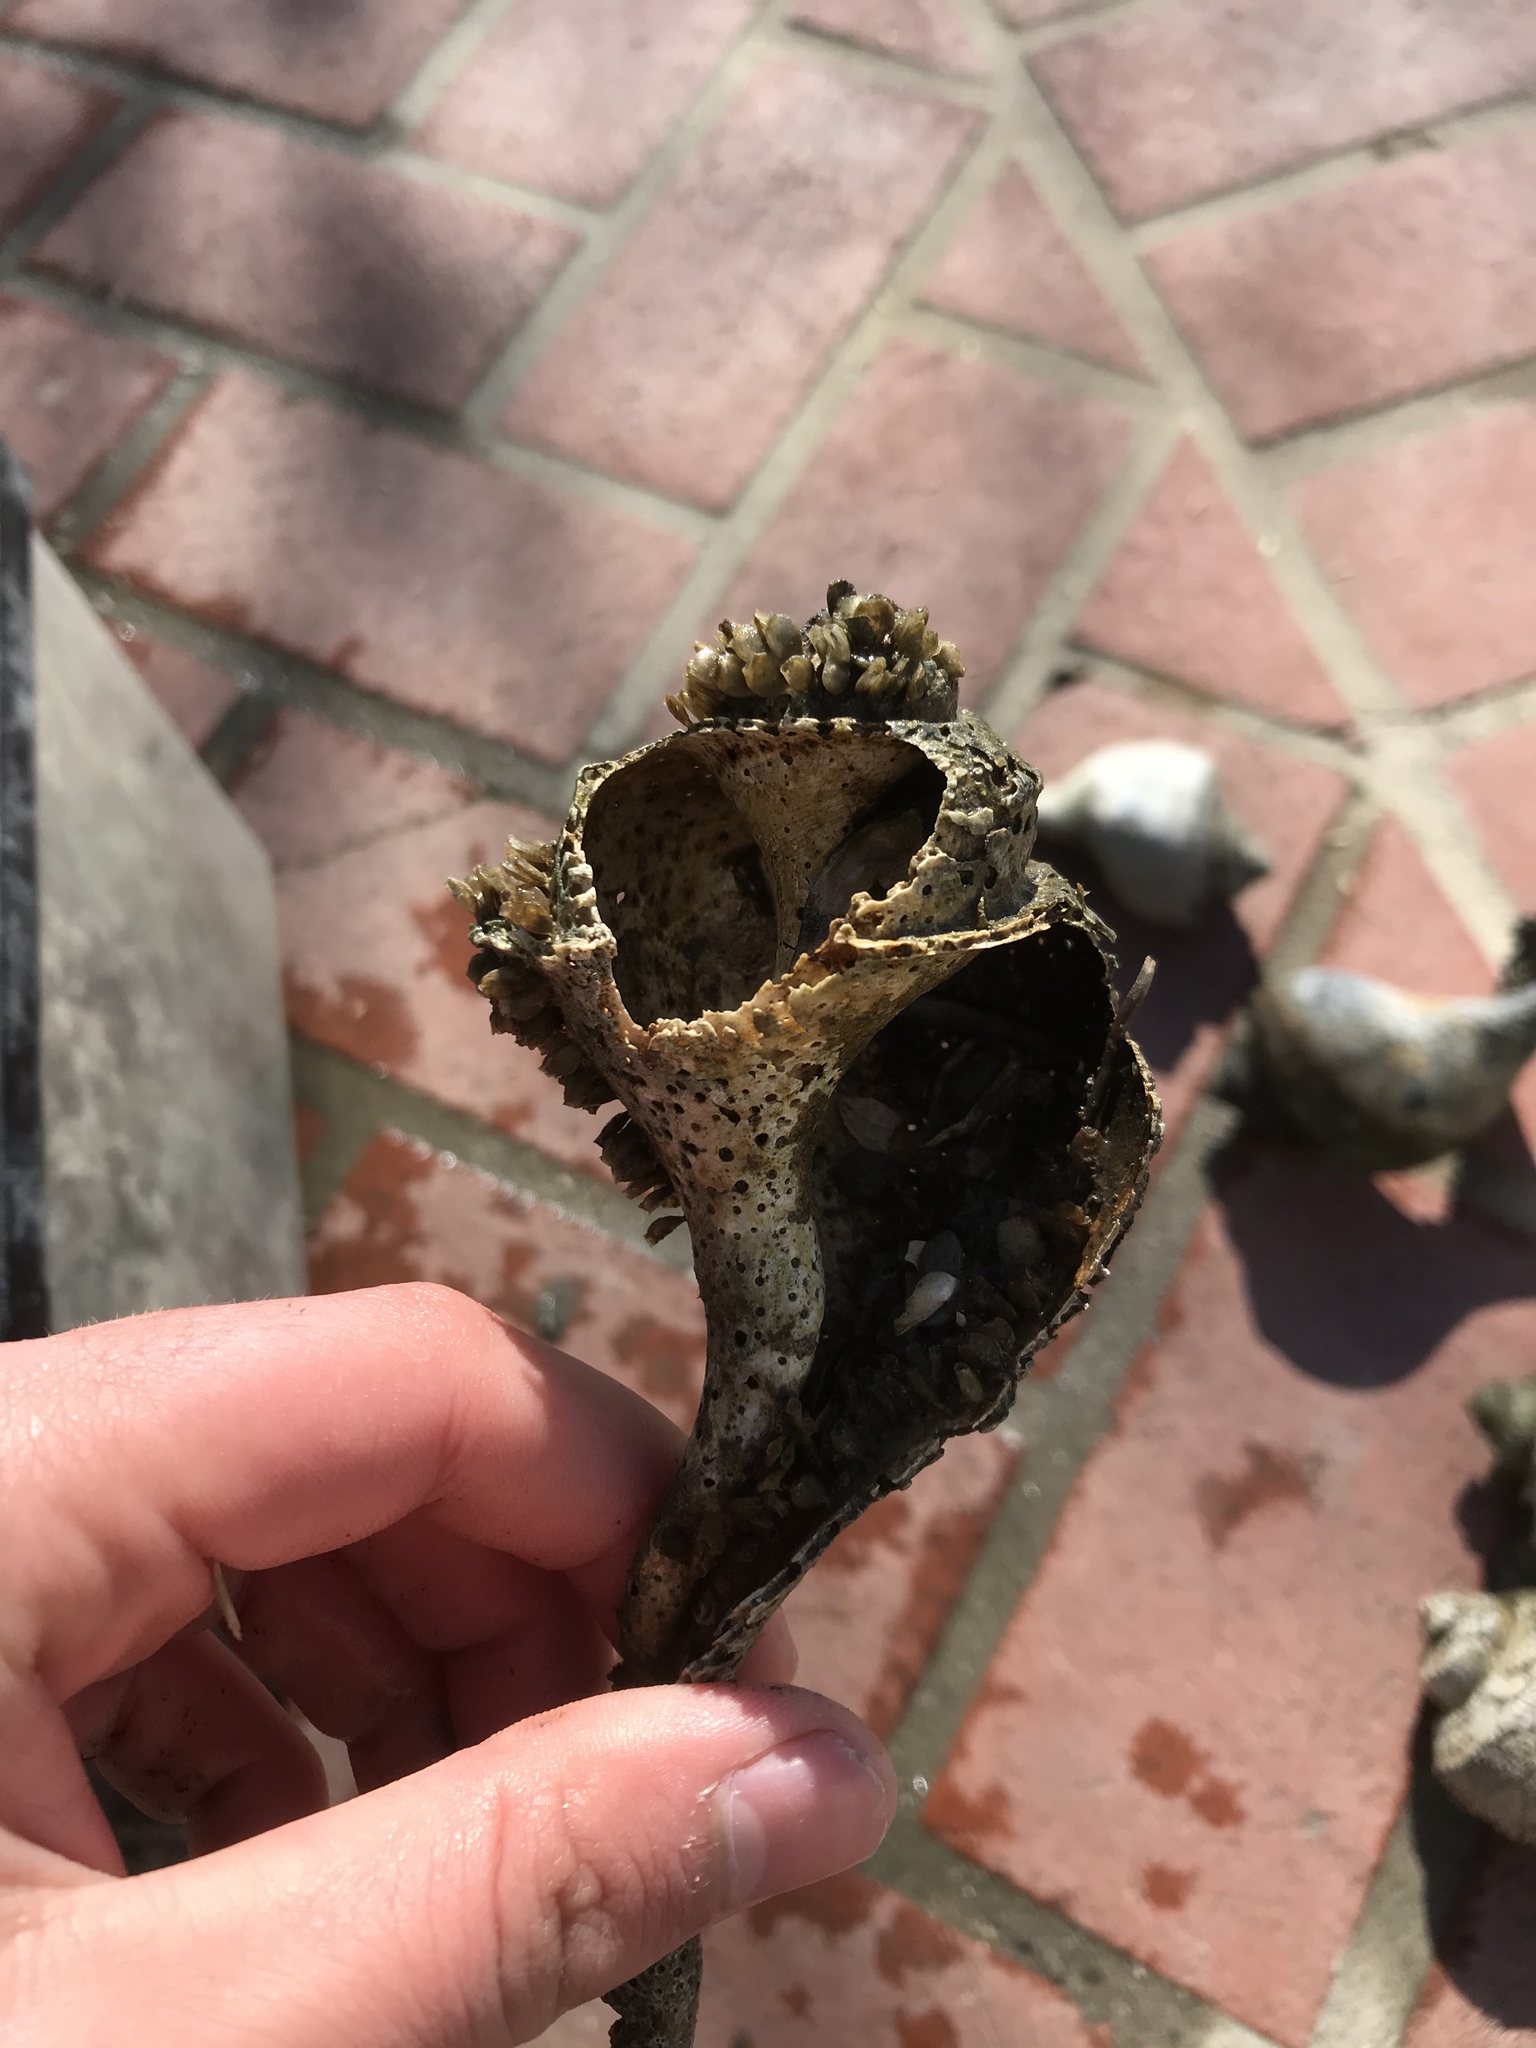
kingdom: Animalia
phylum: Mollusca
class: Gastropoda
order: Neogastropoda
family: Busyconidae
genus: Busycotypus
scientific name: Busycotypus canaliculatus
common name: Channeled whelk
